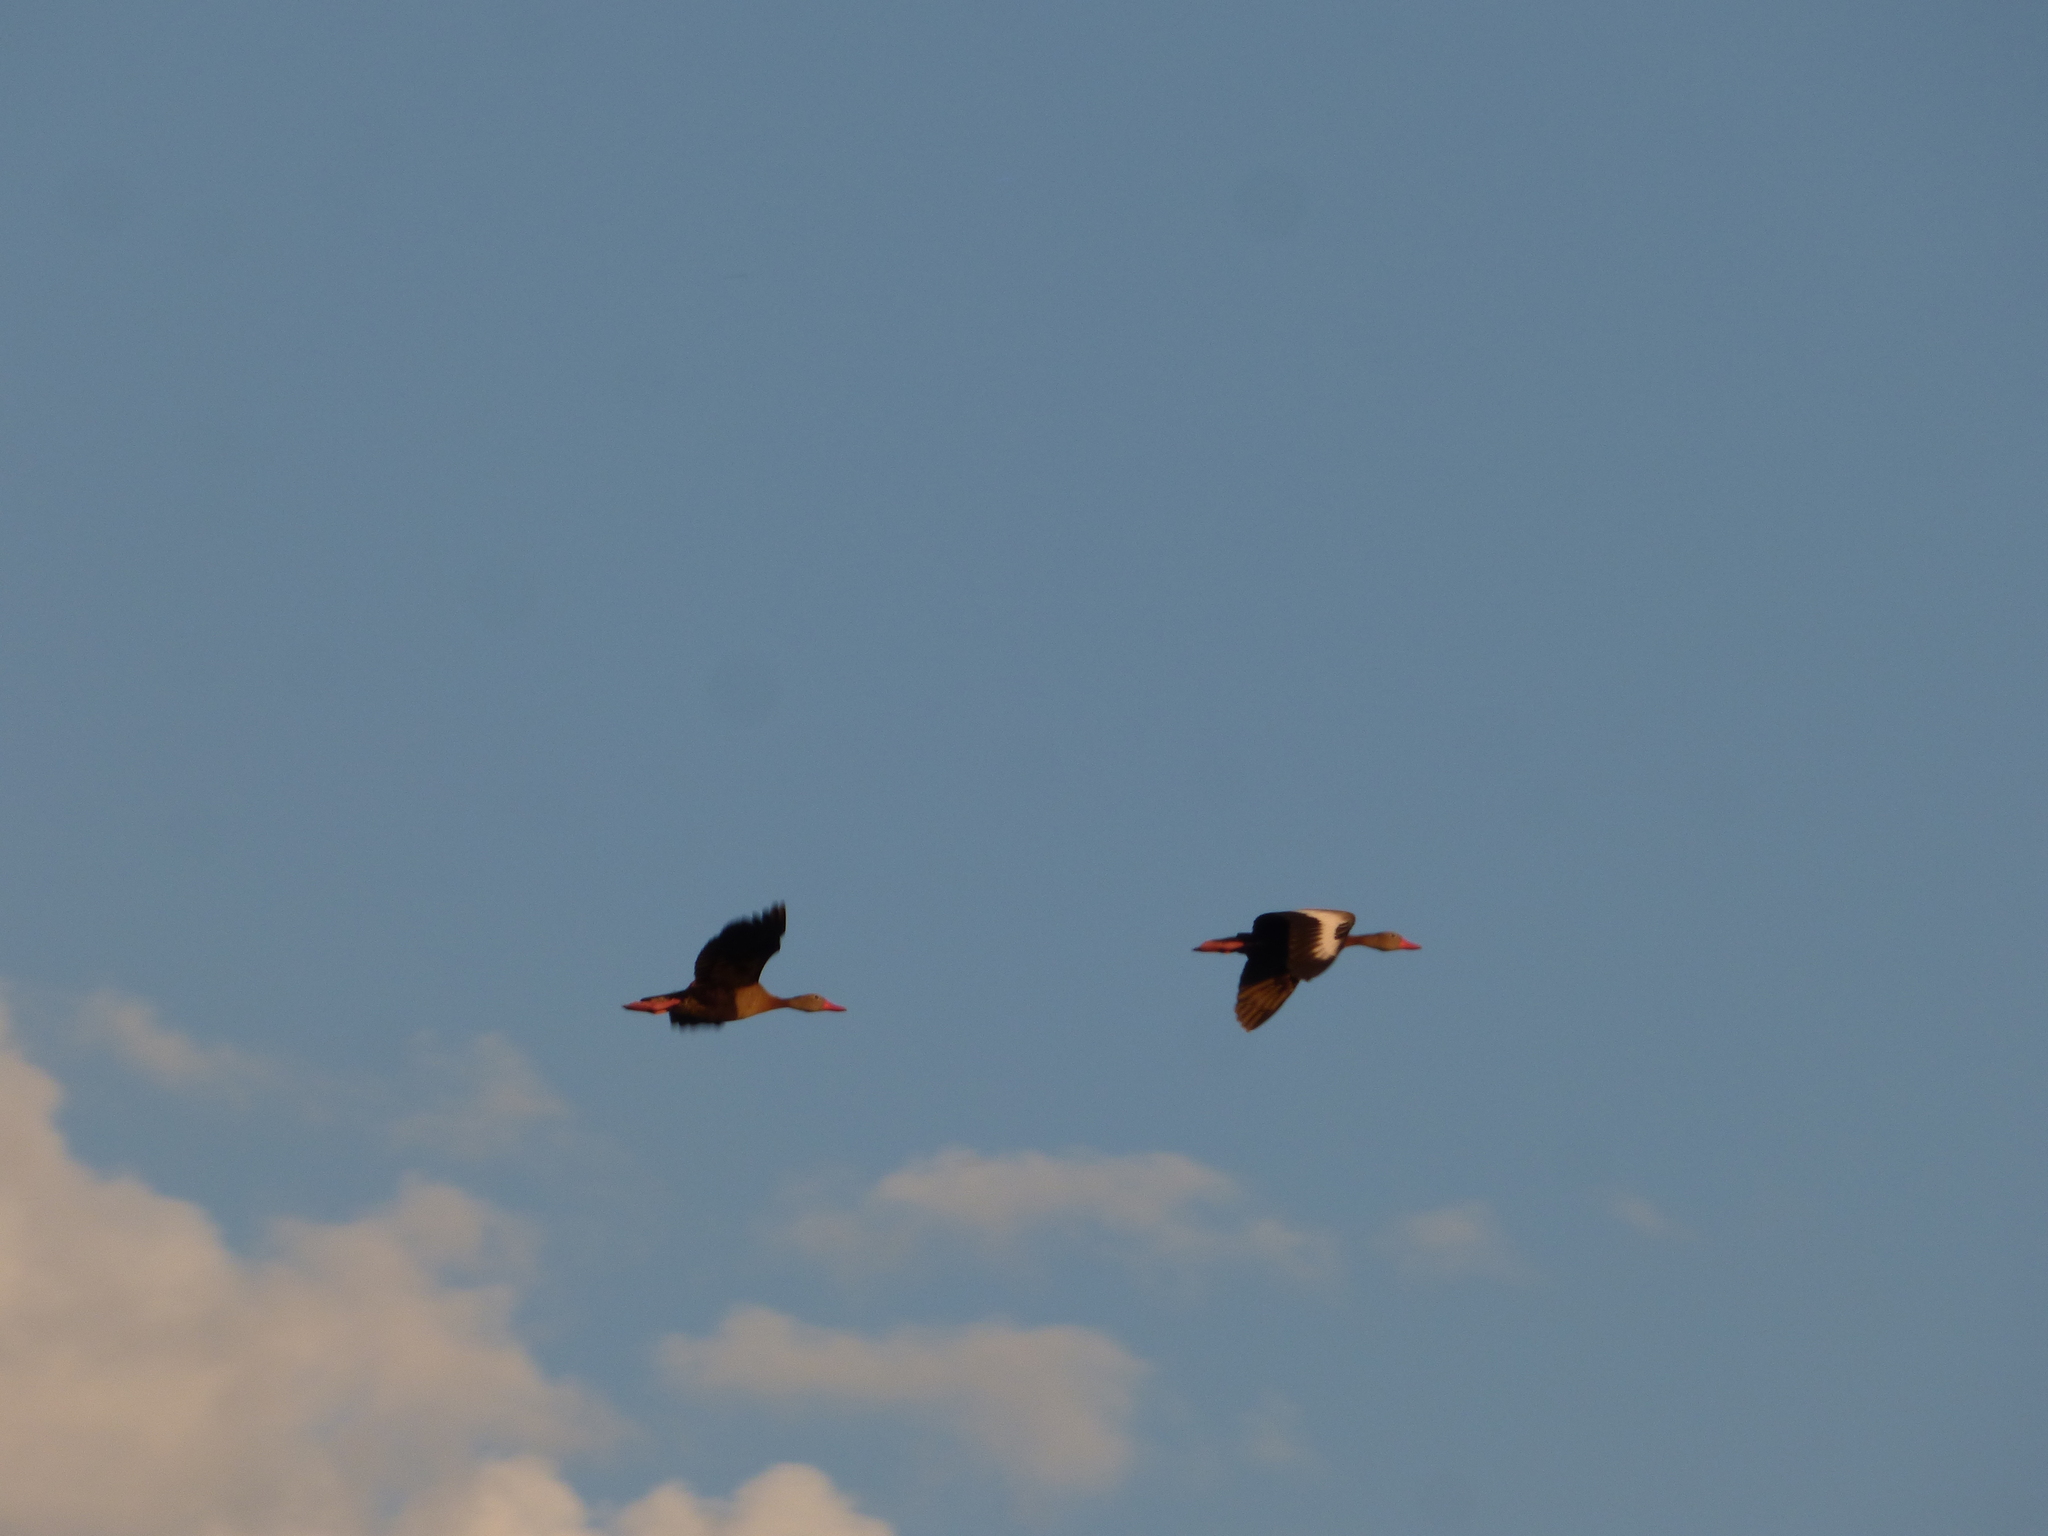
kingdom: Animalia
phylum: Chordata
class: Aves
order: Anseriformes
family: Anatidae
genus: Dendrocygna
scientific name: Dendrocygna autumnalis
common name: Black-bellied whistling duck
